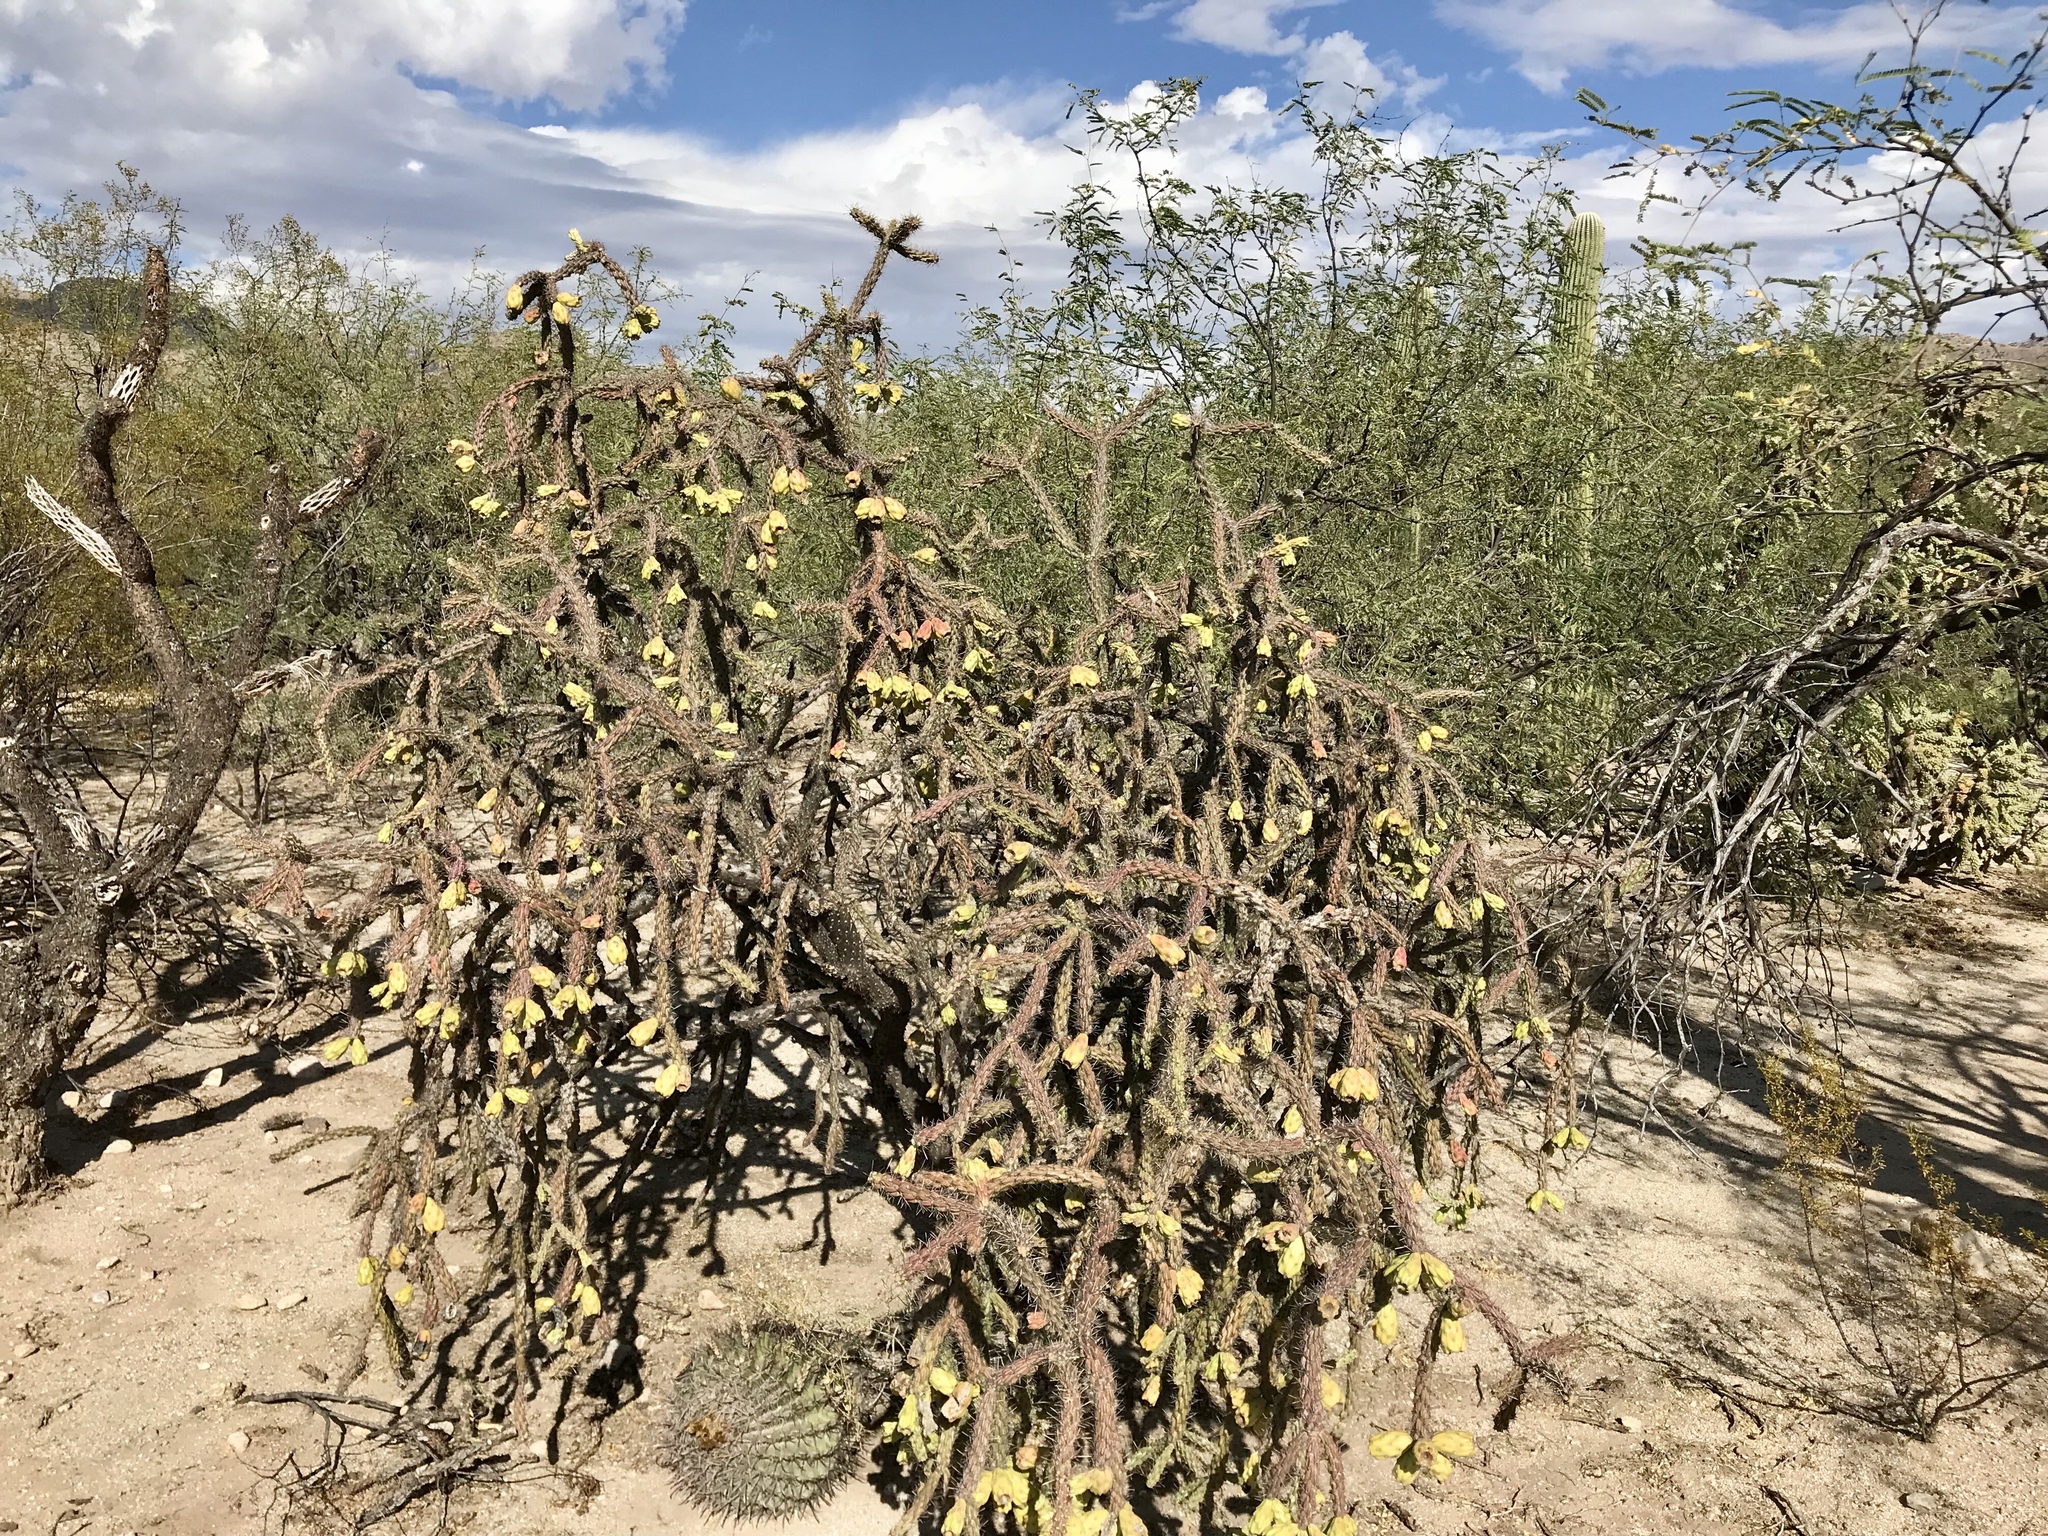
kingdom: Plantae
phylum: Tracheophyta
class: Magnoliopsida
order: Caryophyllales
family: Cactaceae
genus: Cylindropuntia
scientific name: Cylindropuntia thurberi
